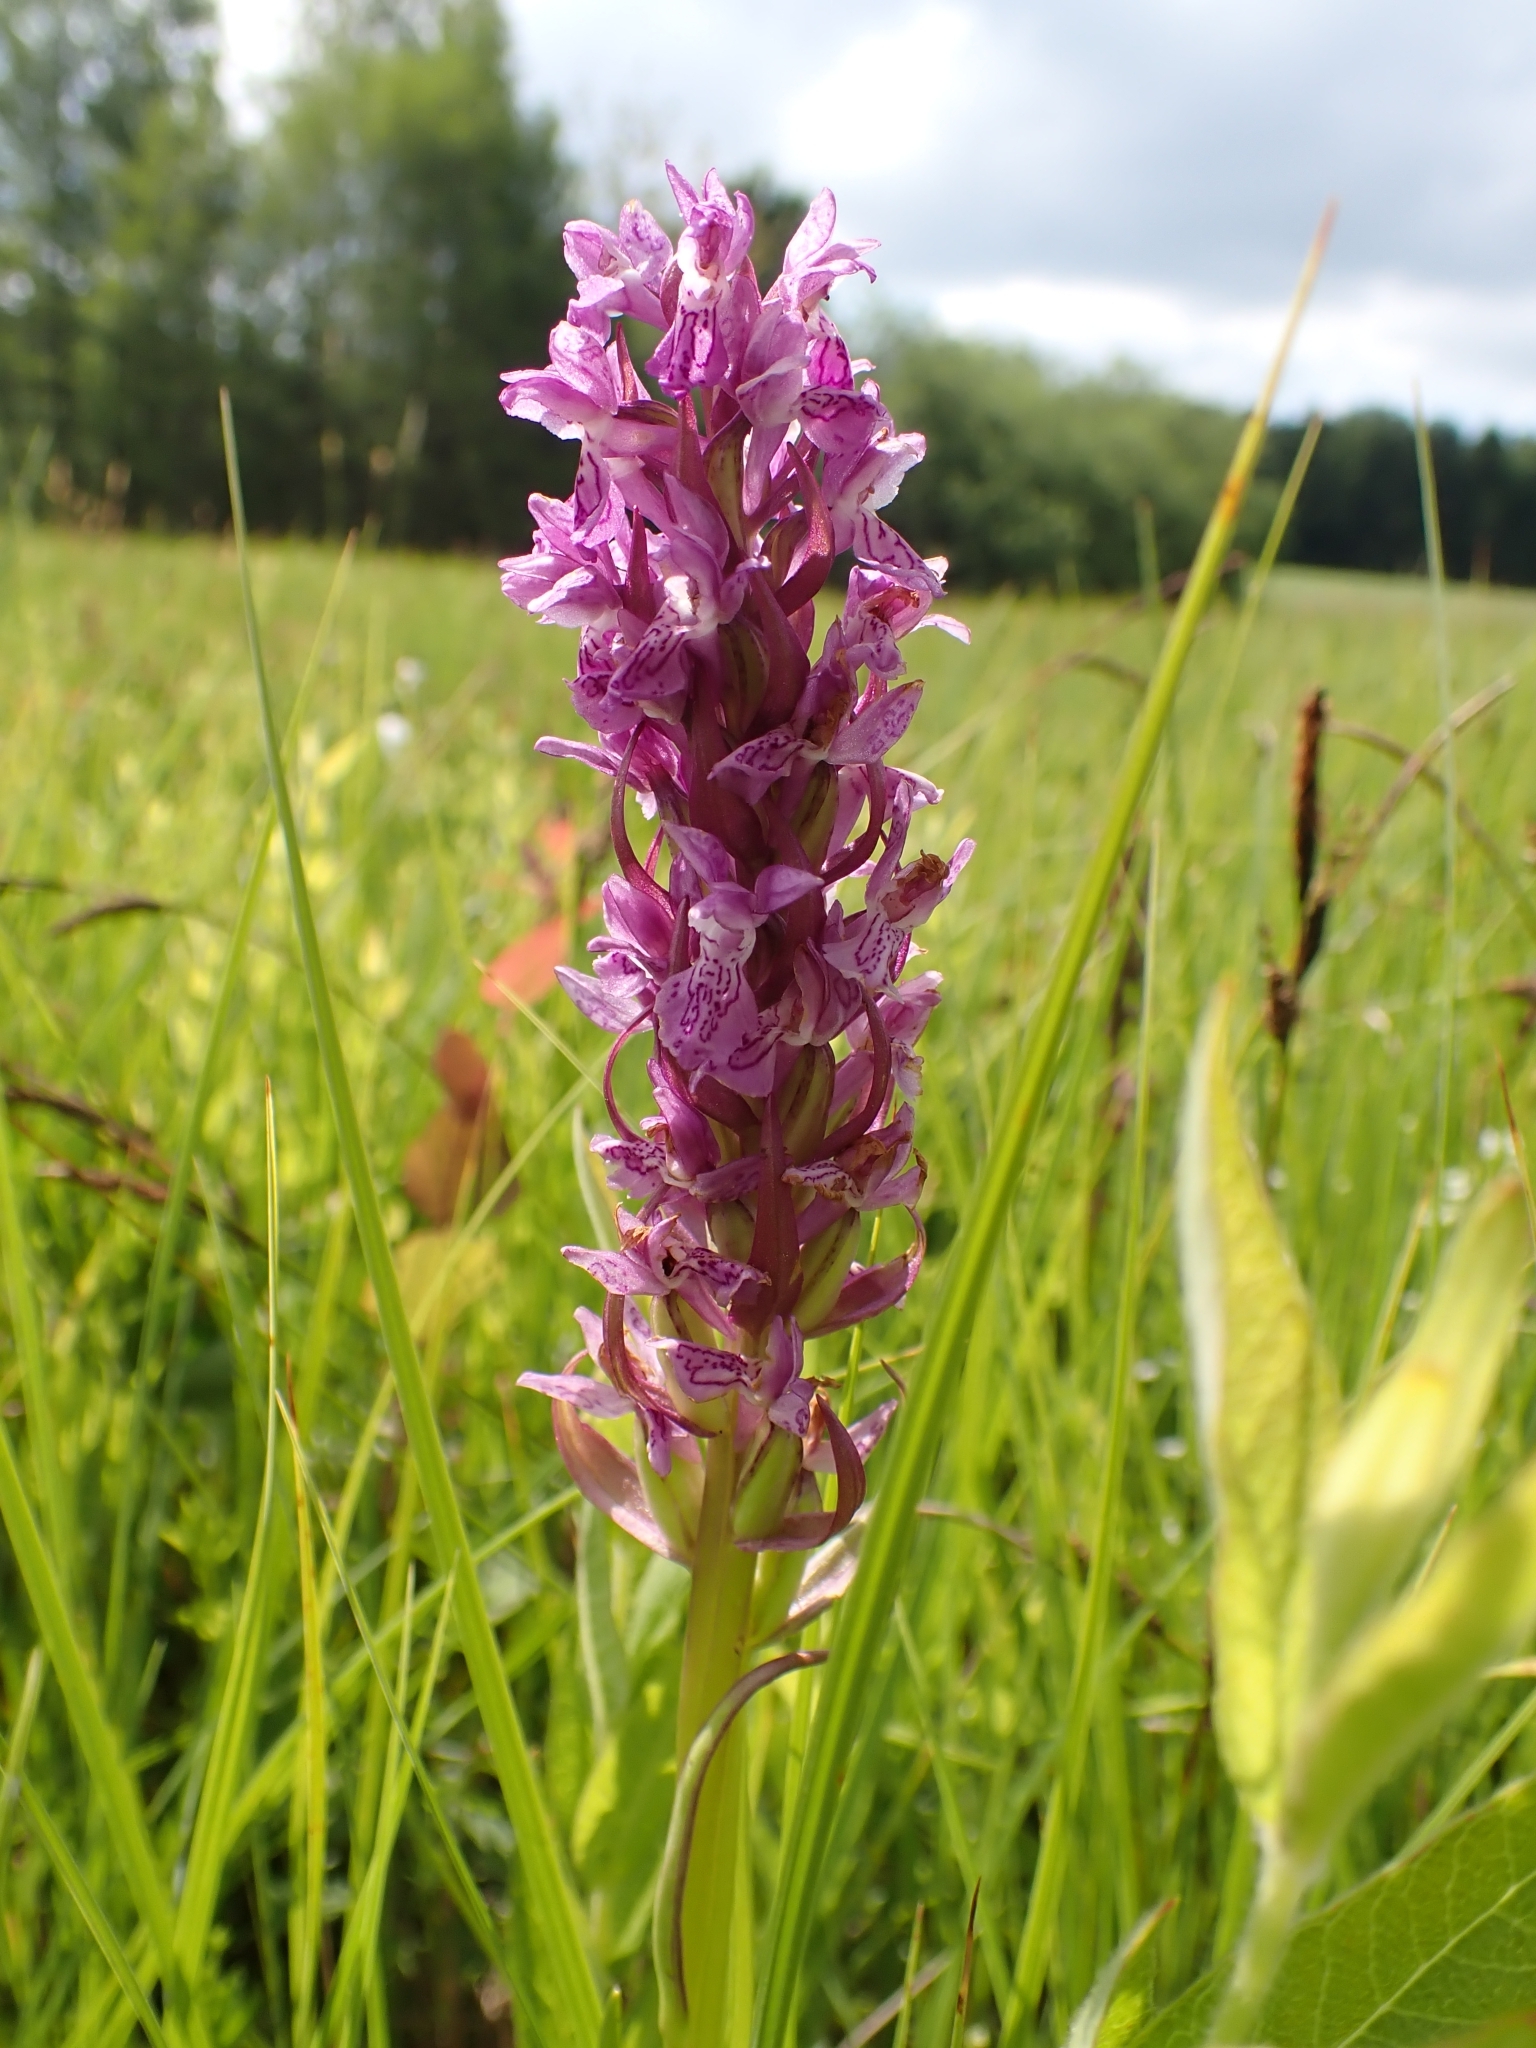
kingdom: Plantae
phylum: Tracheophyta
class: Liliopsida
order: Asparagales
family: Orchidaceae
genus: Dactylorhiza
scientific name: Dactylorhiza incarnata
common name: Early marsh-orchid
